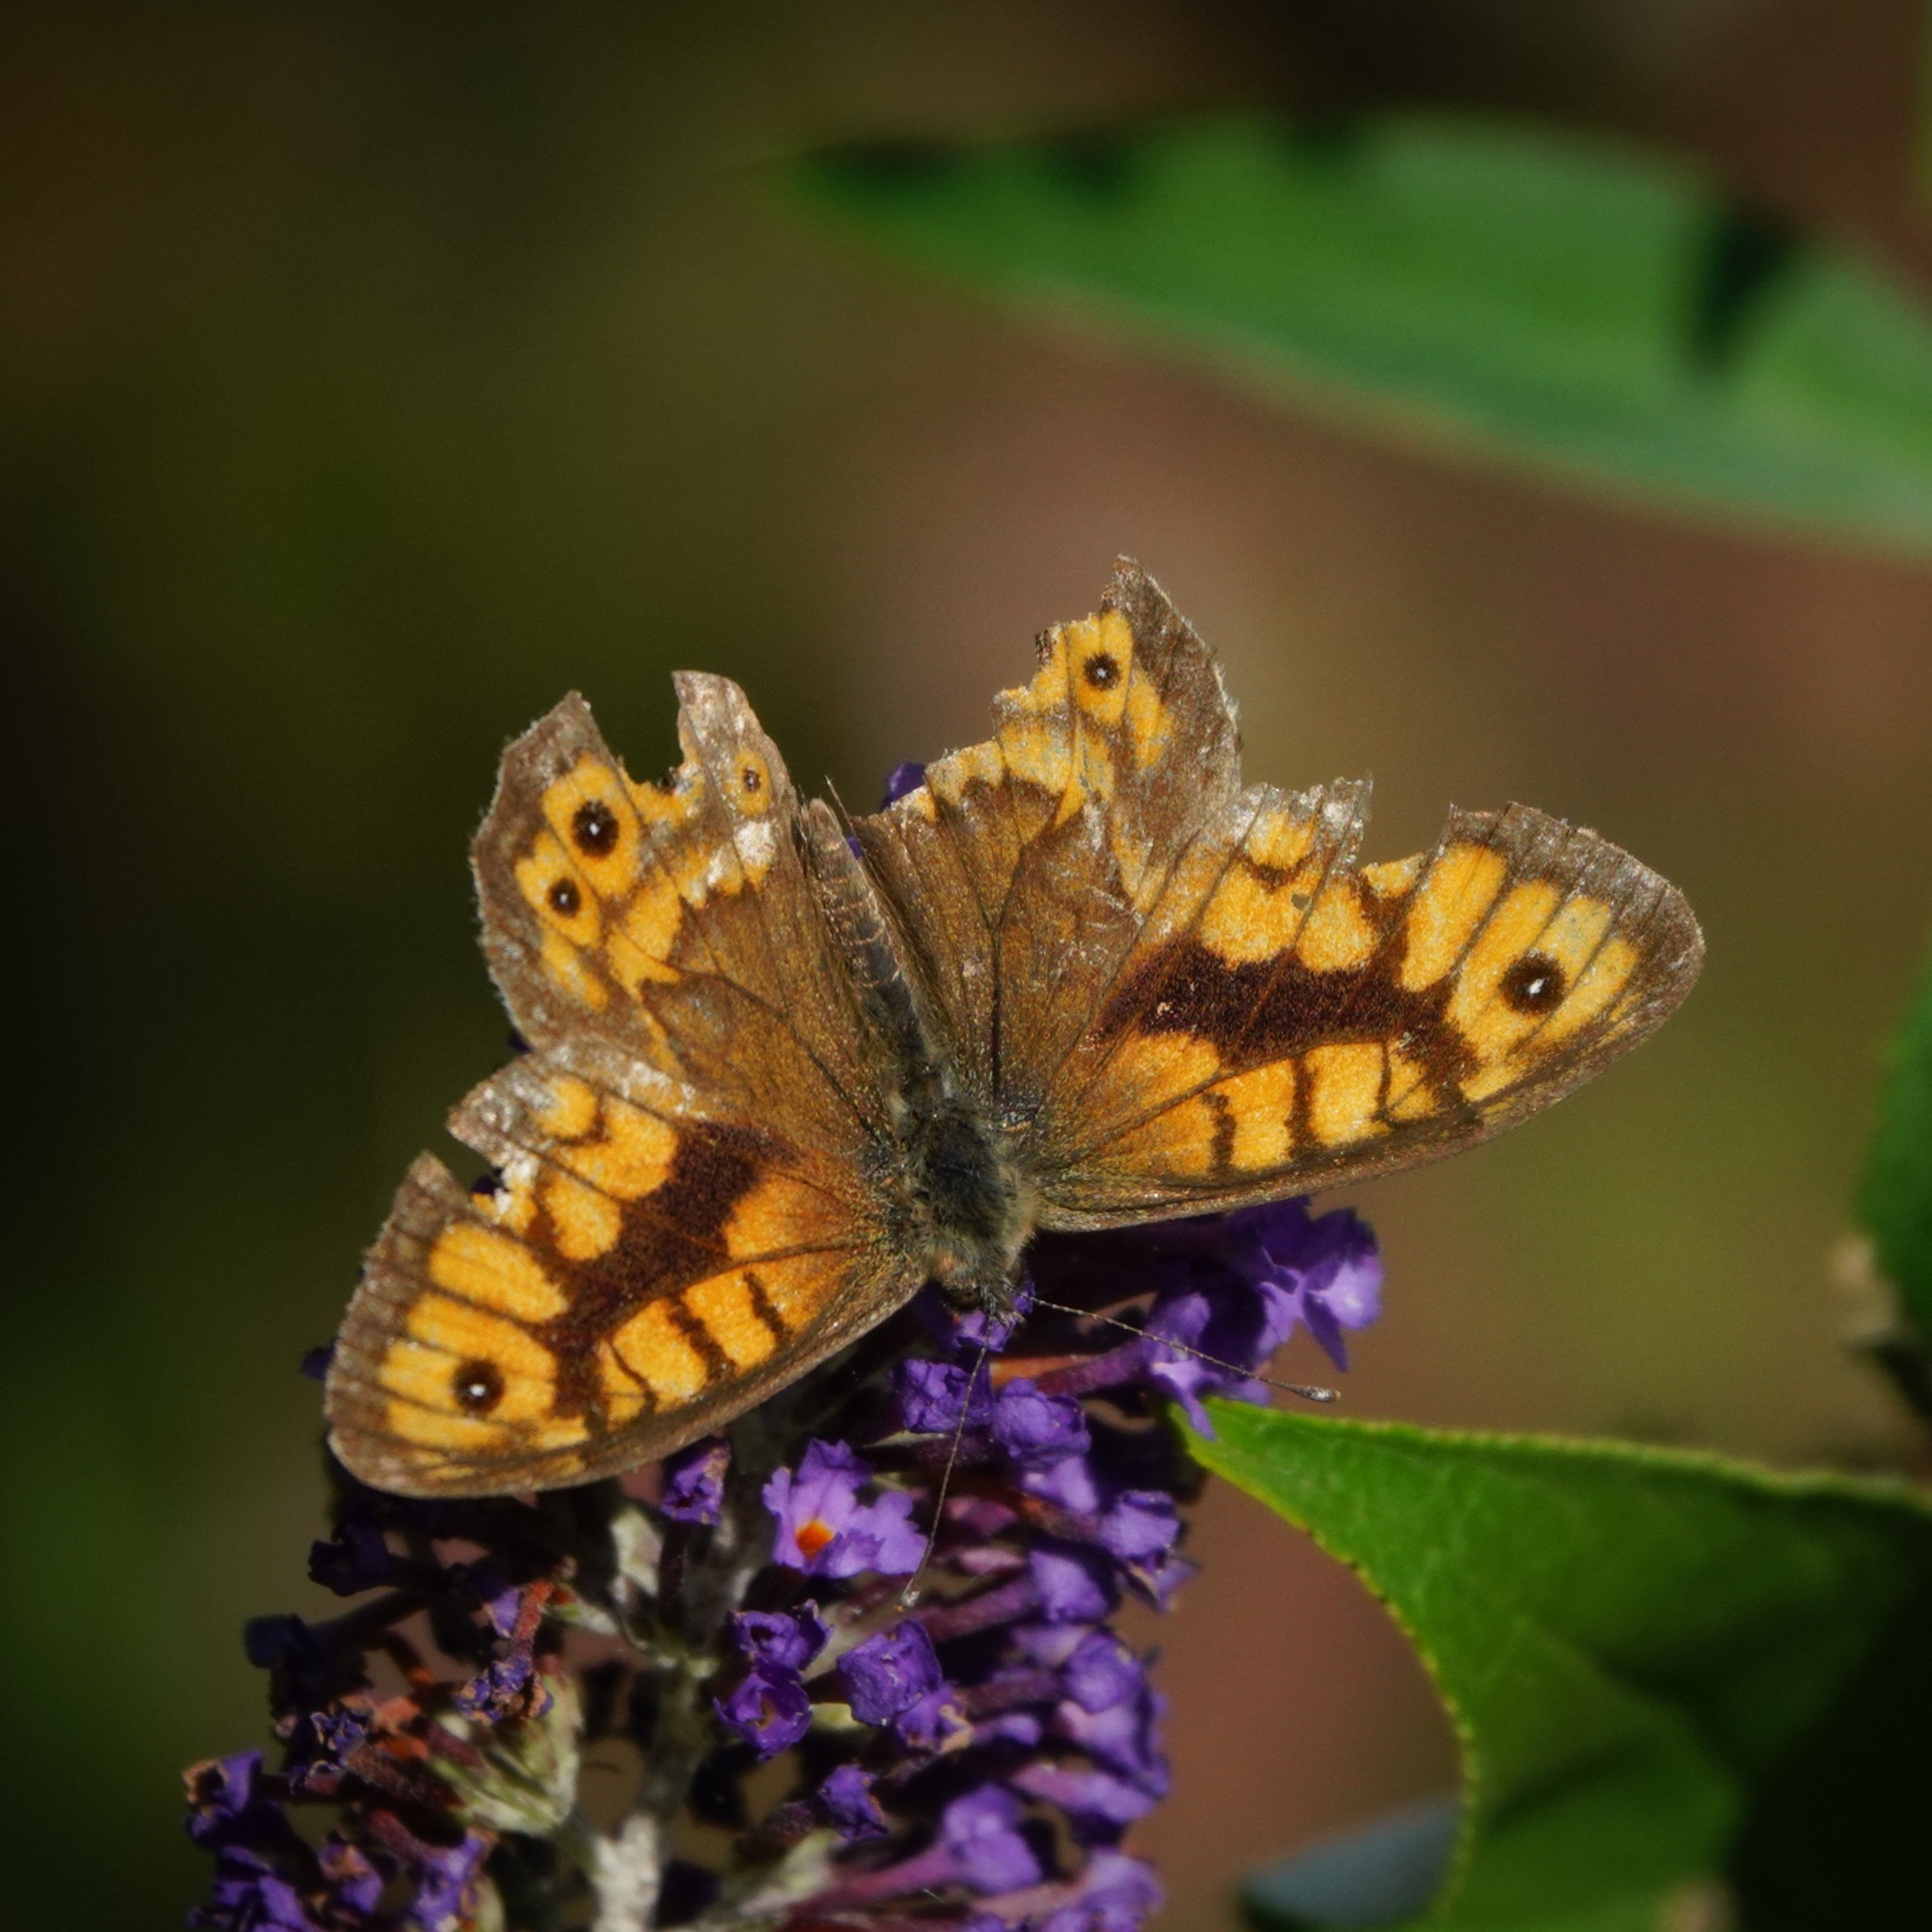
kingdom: Animalia
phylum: Arthropoda
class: Insecta
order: Lepidoptera
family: Nymphalidae
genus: Pararge
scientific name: Pararge Lasiommata megera
